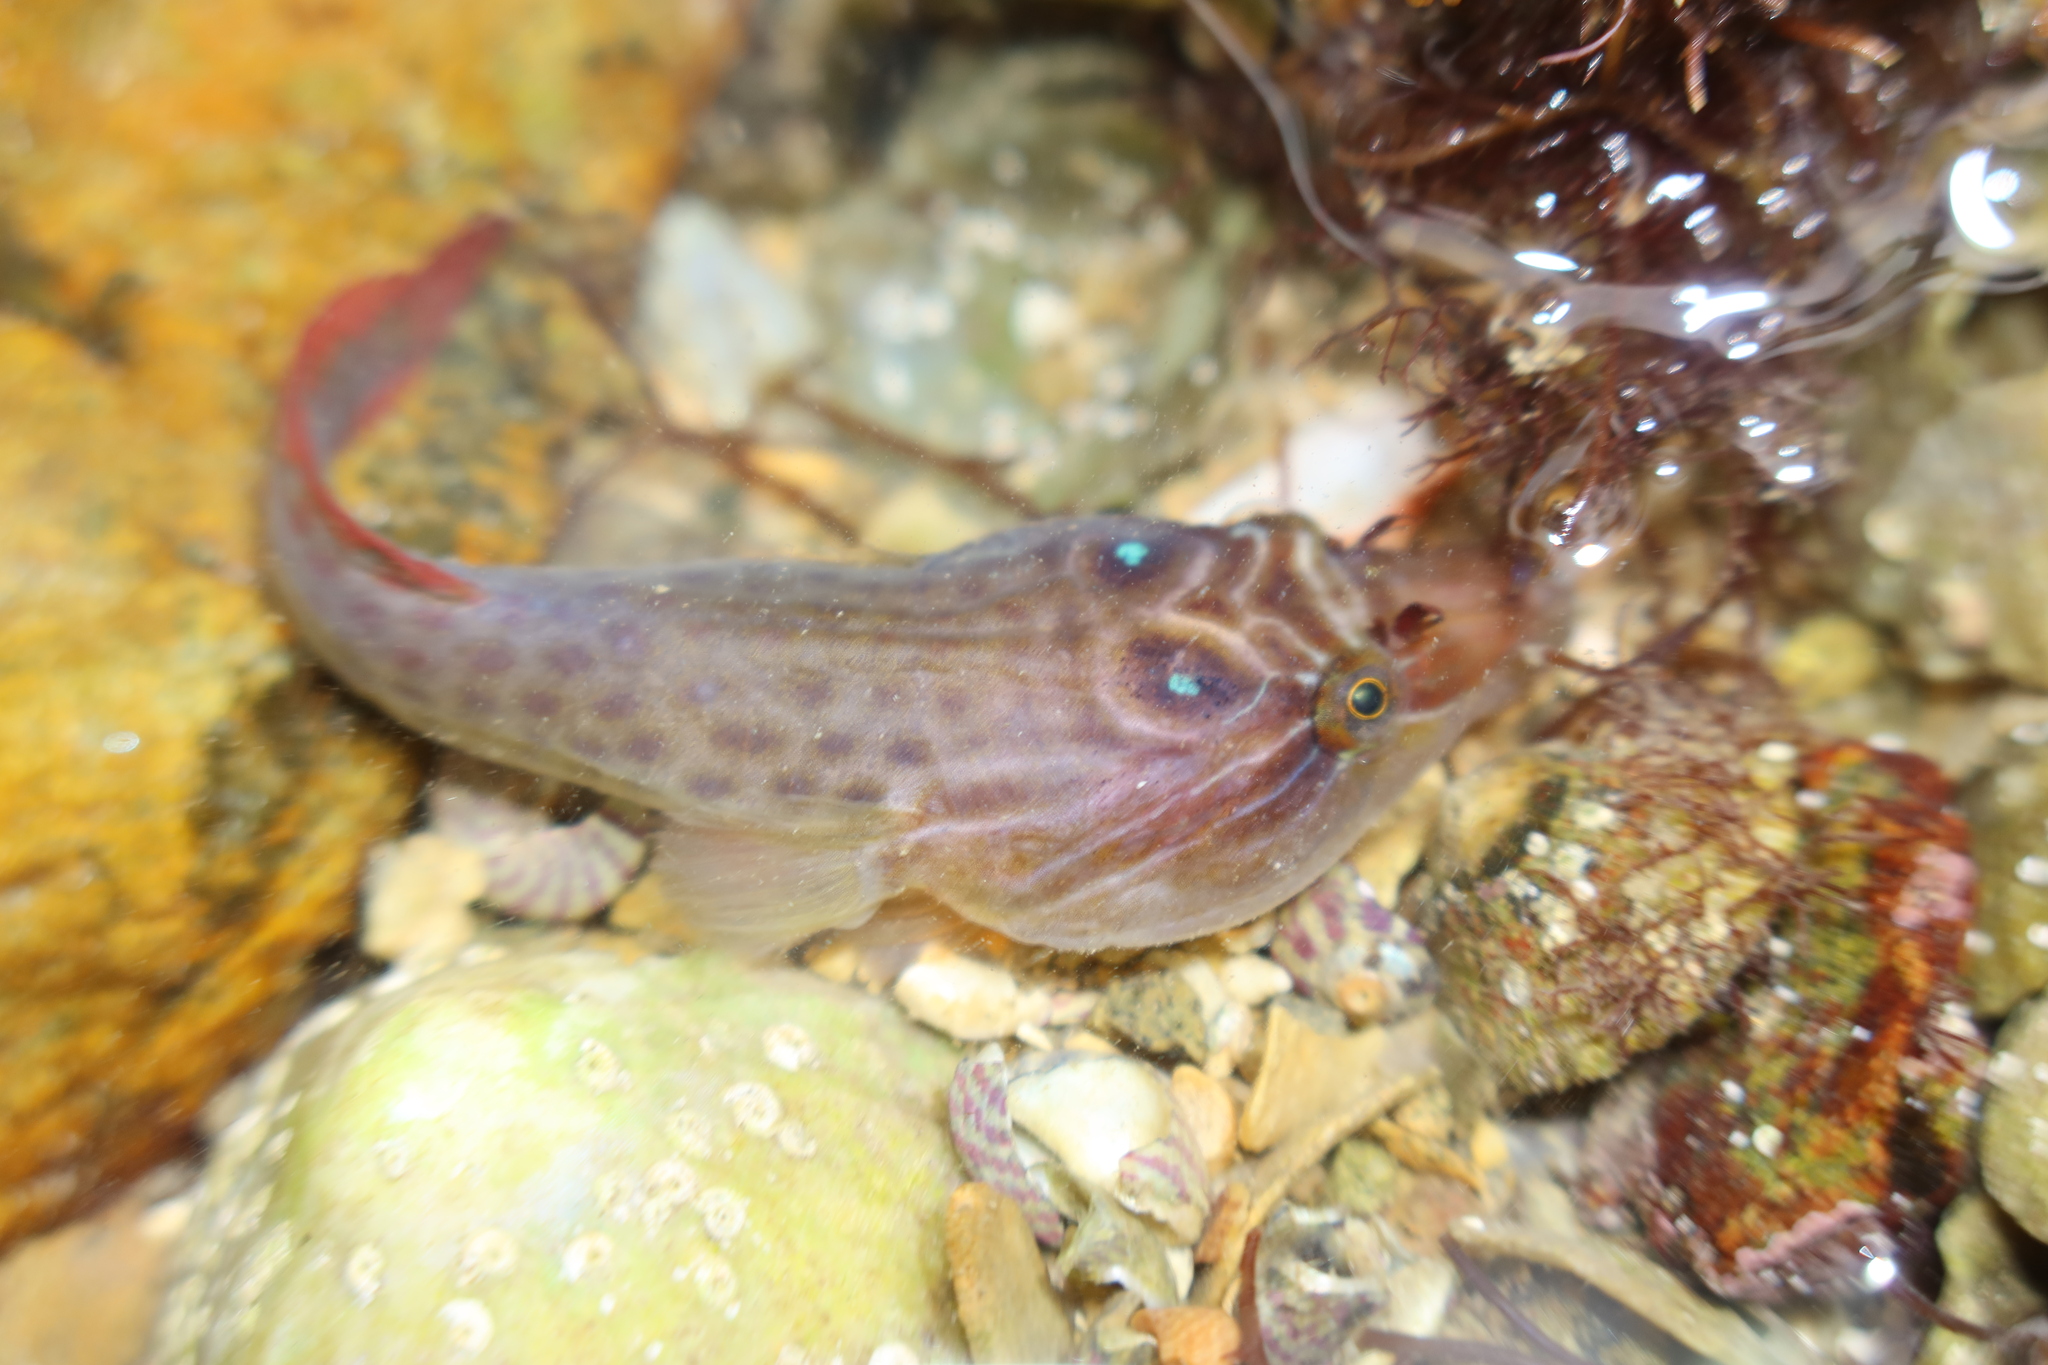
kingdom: Animalia
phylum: Chordata
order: Gobiesociformes
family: Gobiesocidae
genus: Lepadogaster
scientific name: Lepadogaster purpurea
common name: Cornish sucker
